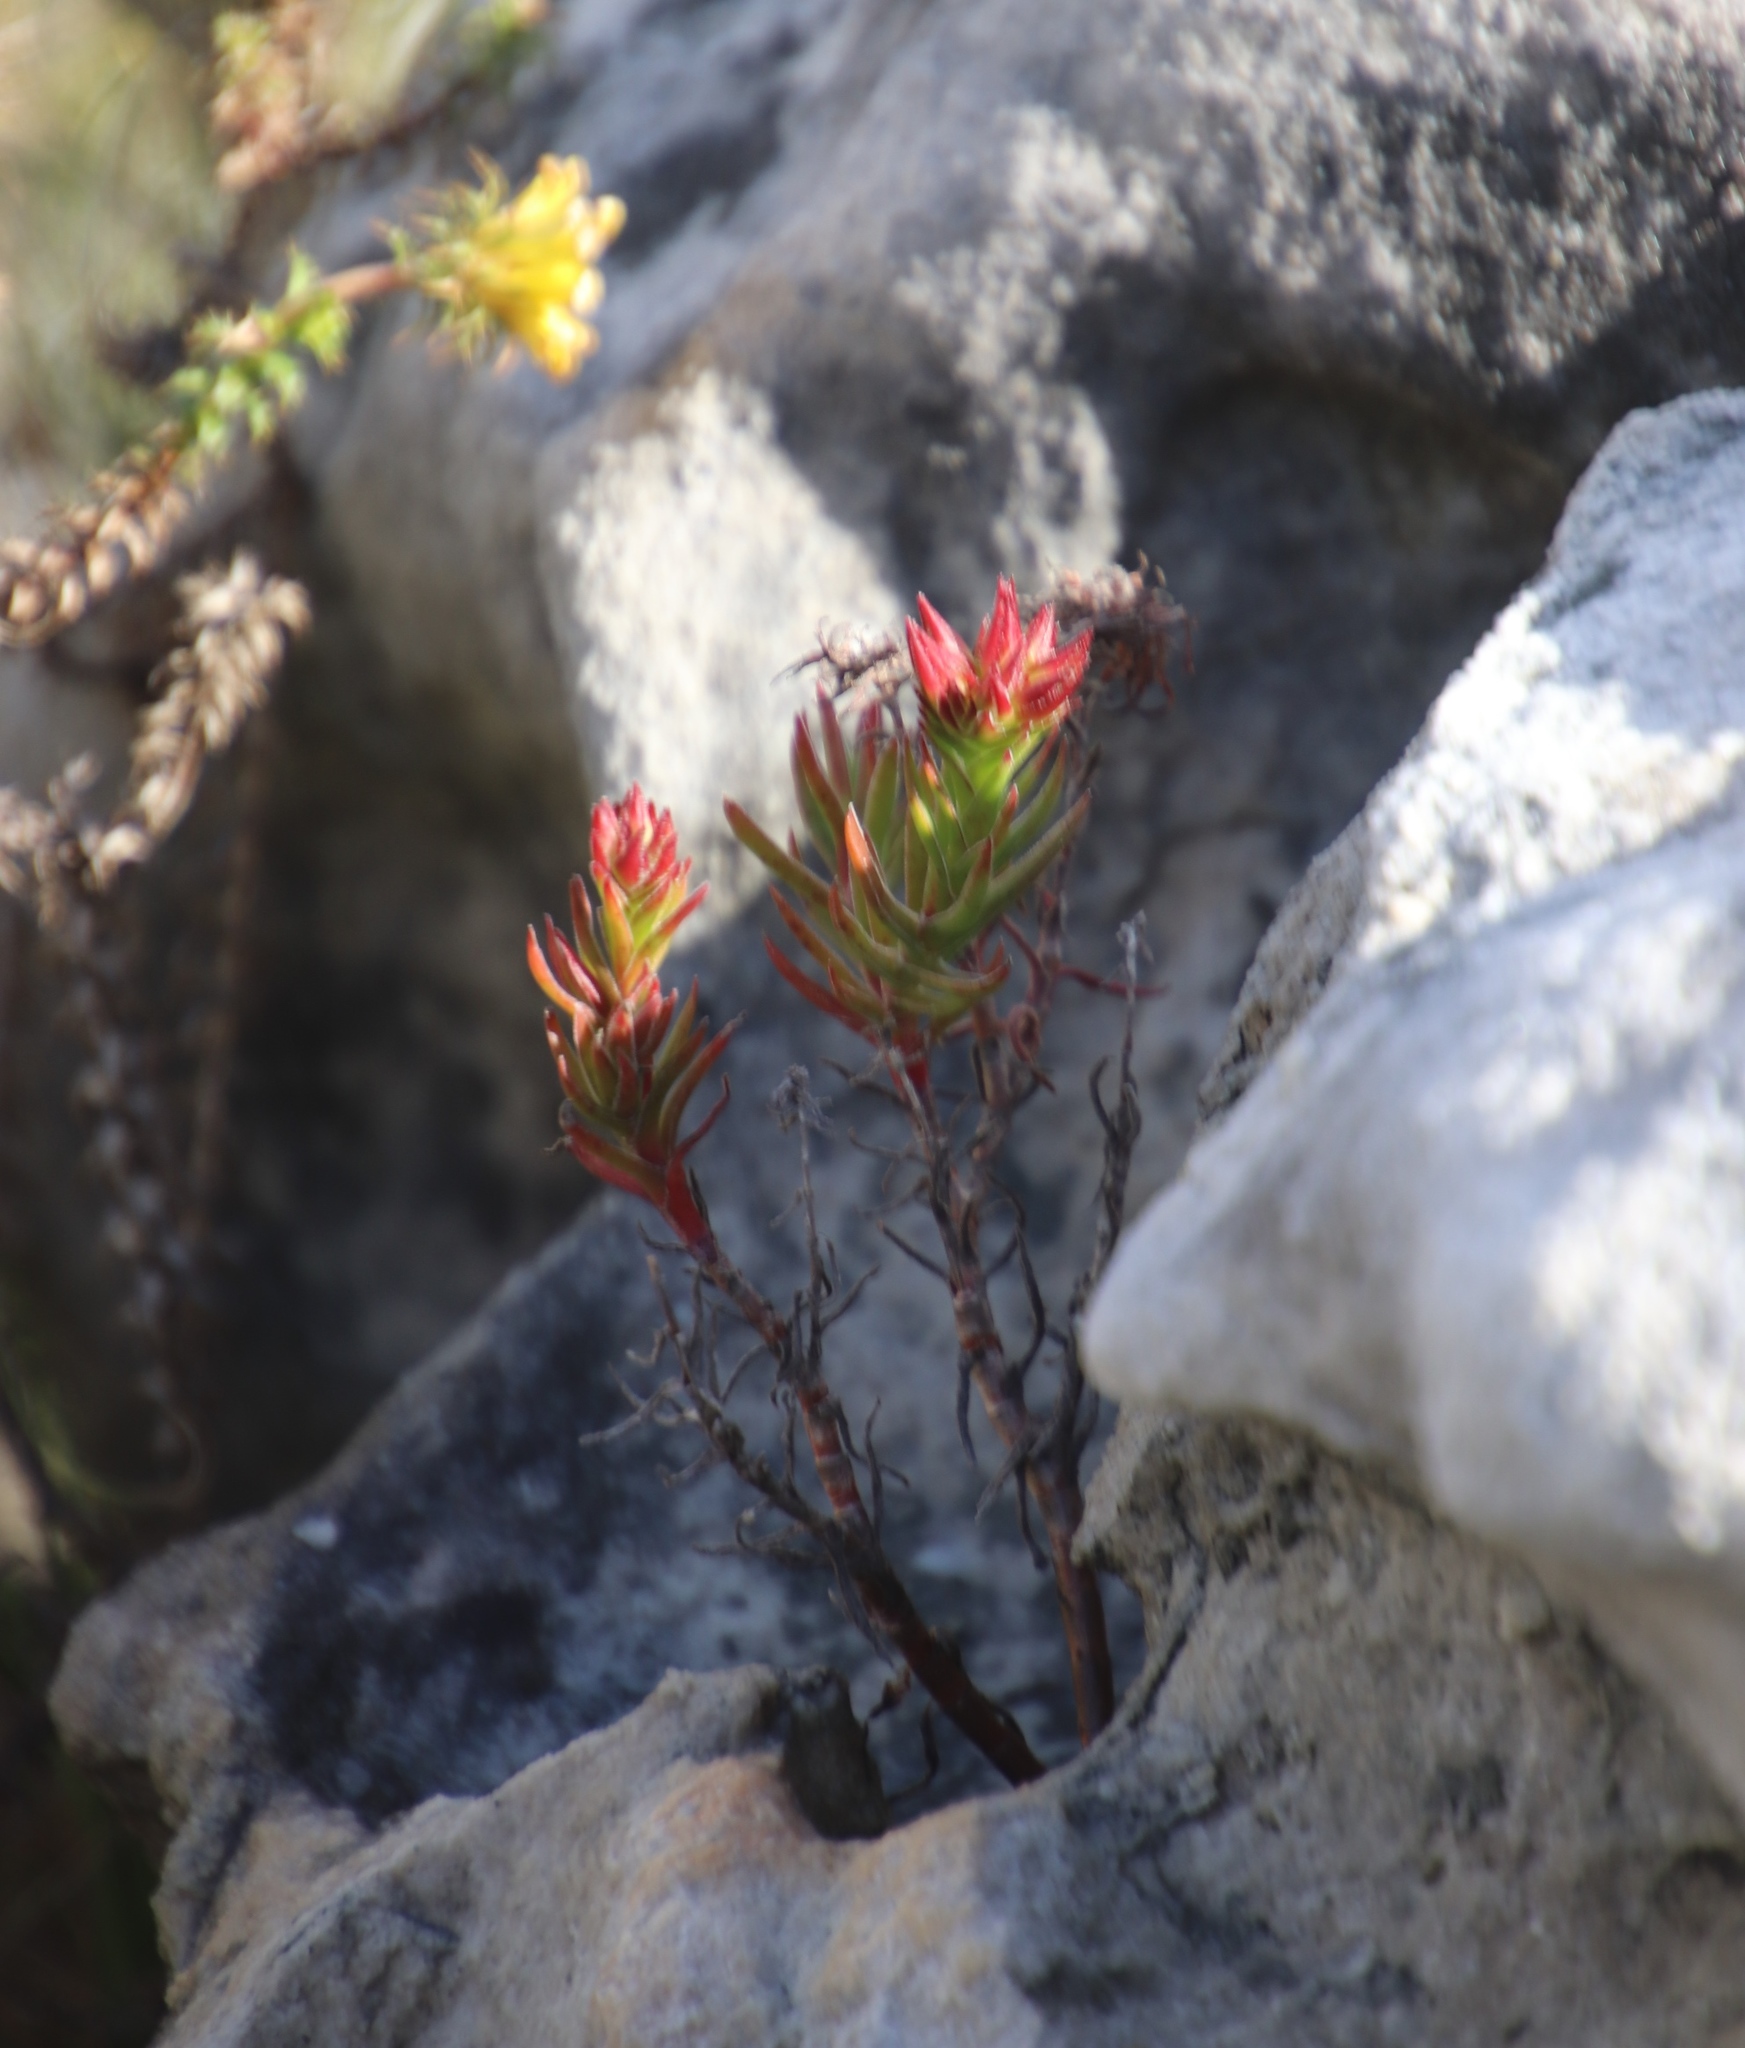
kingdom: Plantae
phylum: Tracheophyta
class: Magnoliopsida
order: Saxifragales
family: Crassulaceae
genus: Crassula
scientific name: Crassula fascicularis
